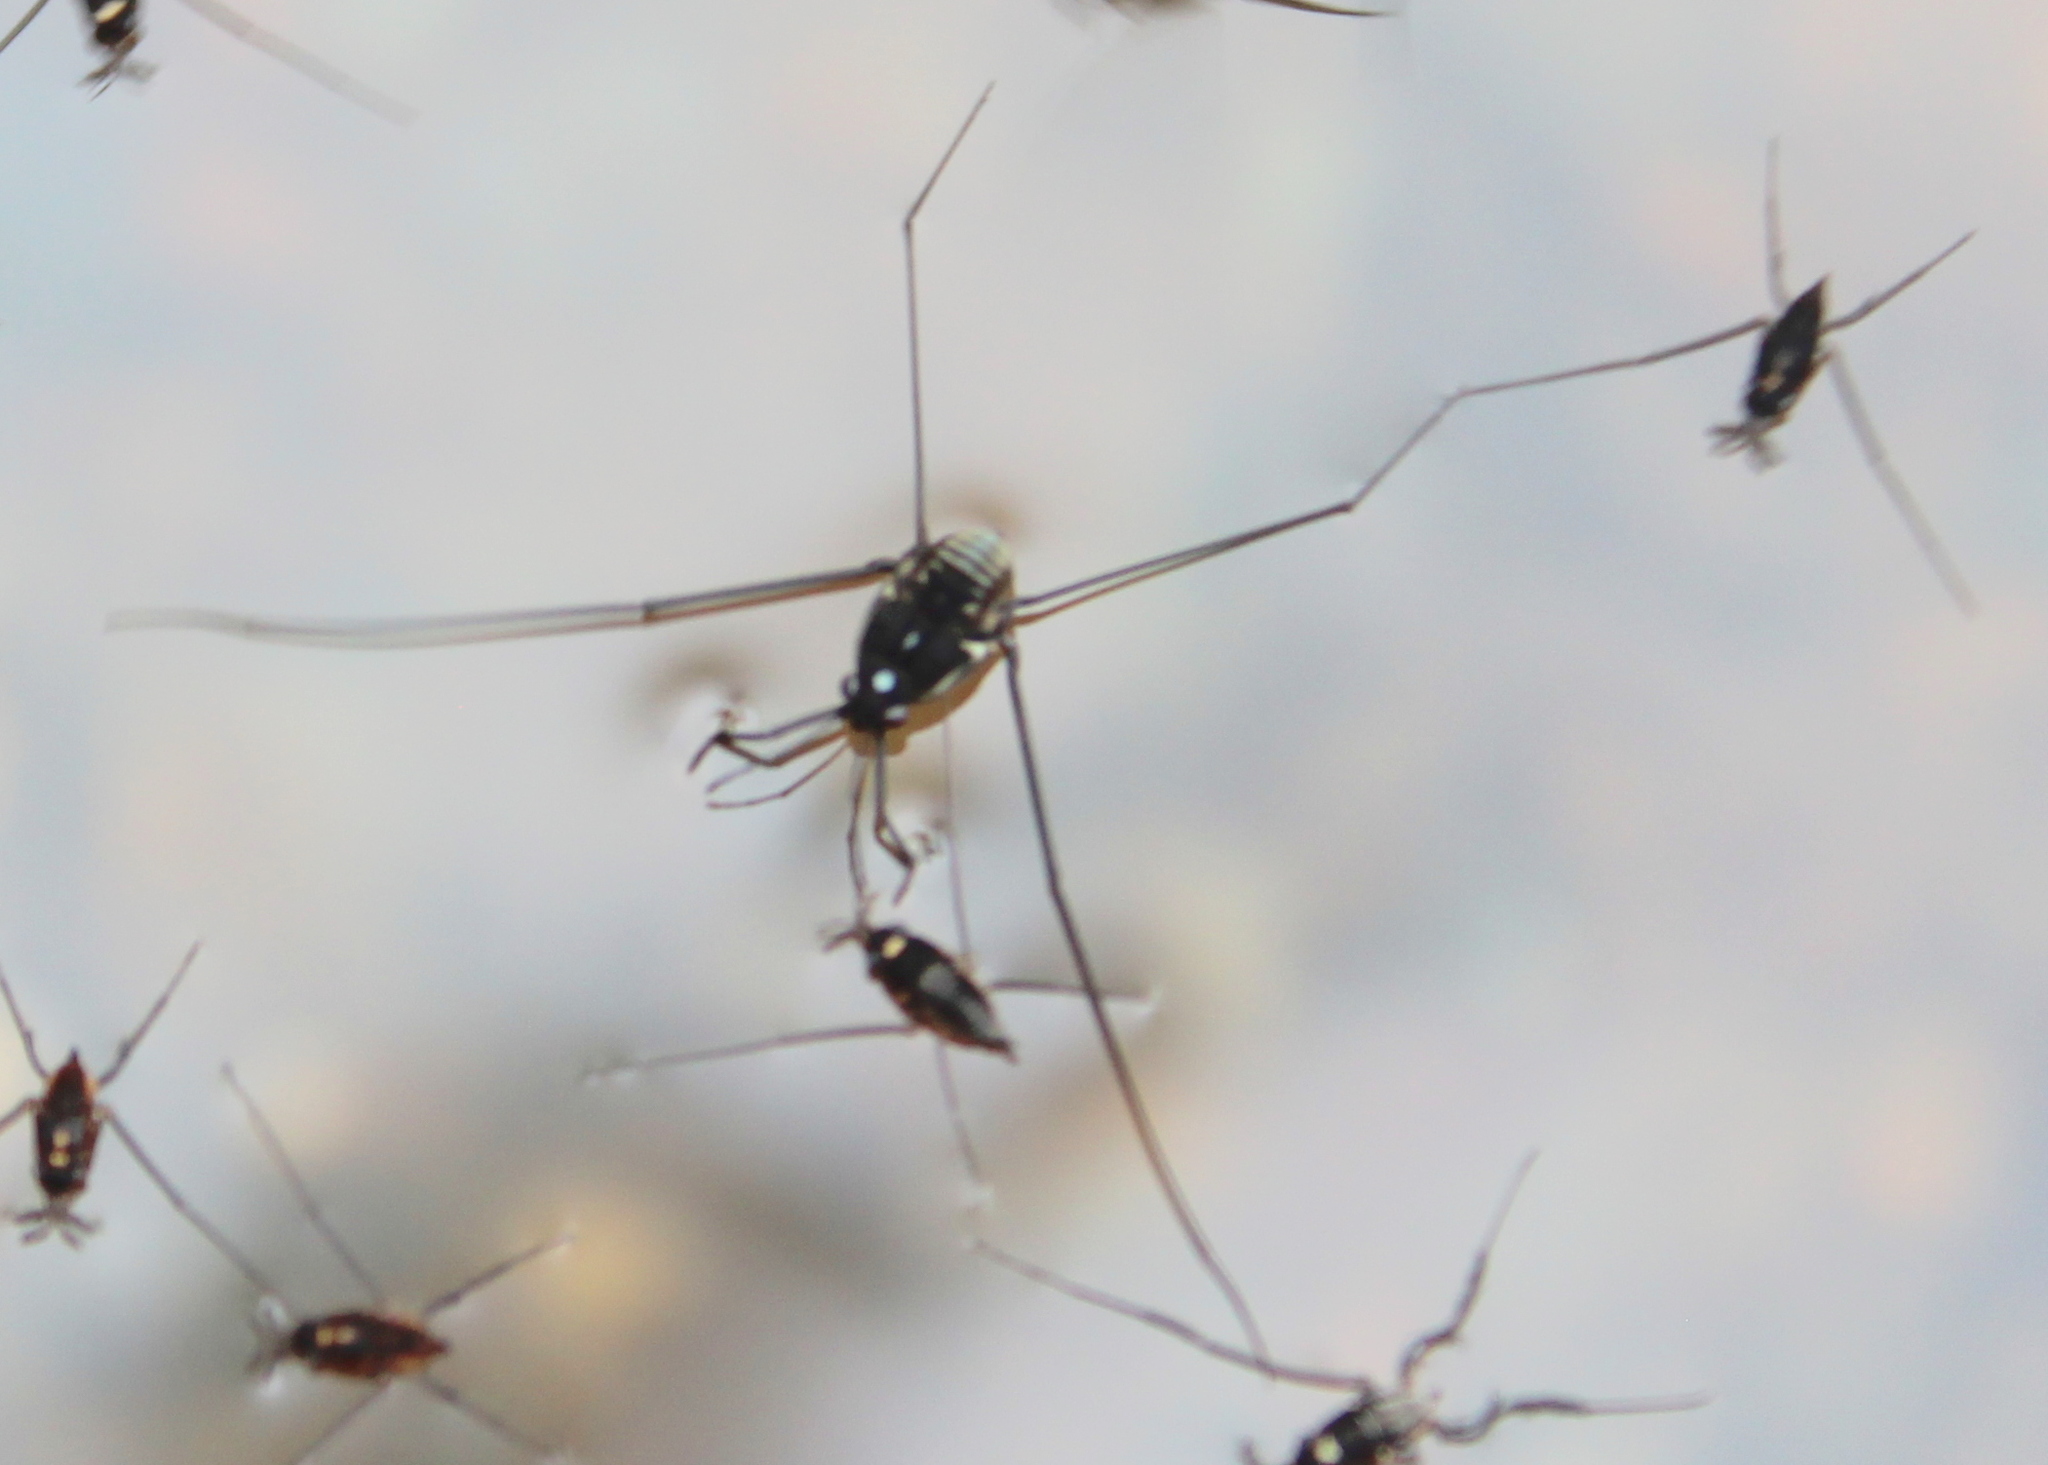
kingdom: Animalia
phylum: Arthropoda
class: Insecta
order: Hemiptera
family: Gerridae
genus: Metrobates
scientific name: Metrobates hesperius
